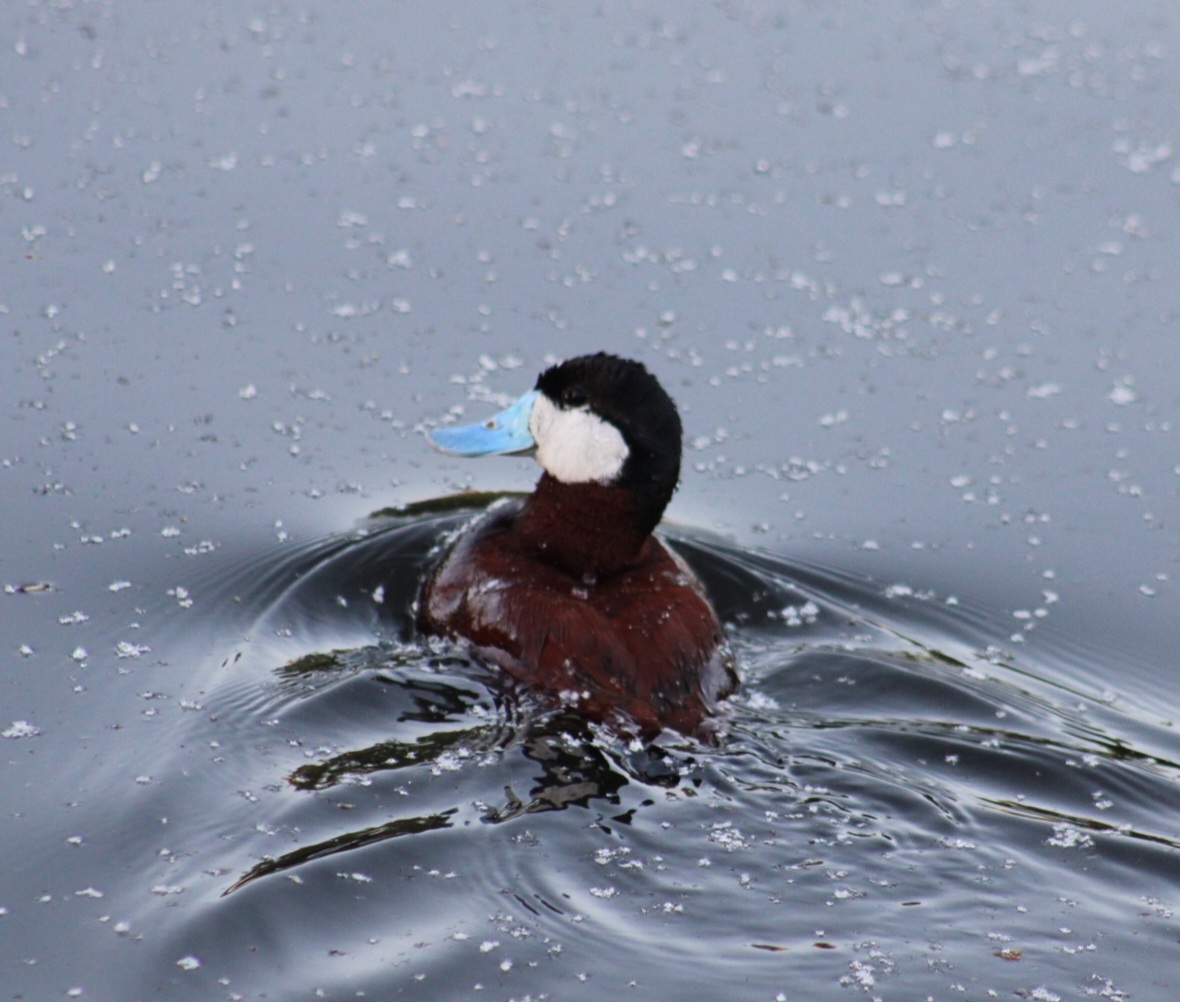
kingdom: Animalia
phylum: Chordata
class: Aves
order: Anseriformes
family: Anatidae
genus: Oxyura
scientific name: Oxyura jamaicensis
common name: Ruddy duck
